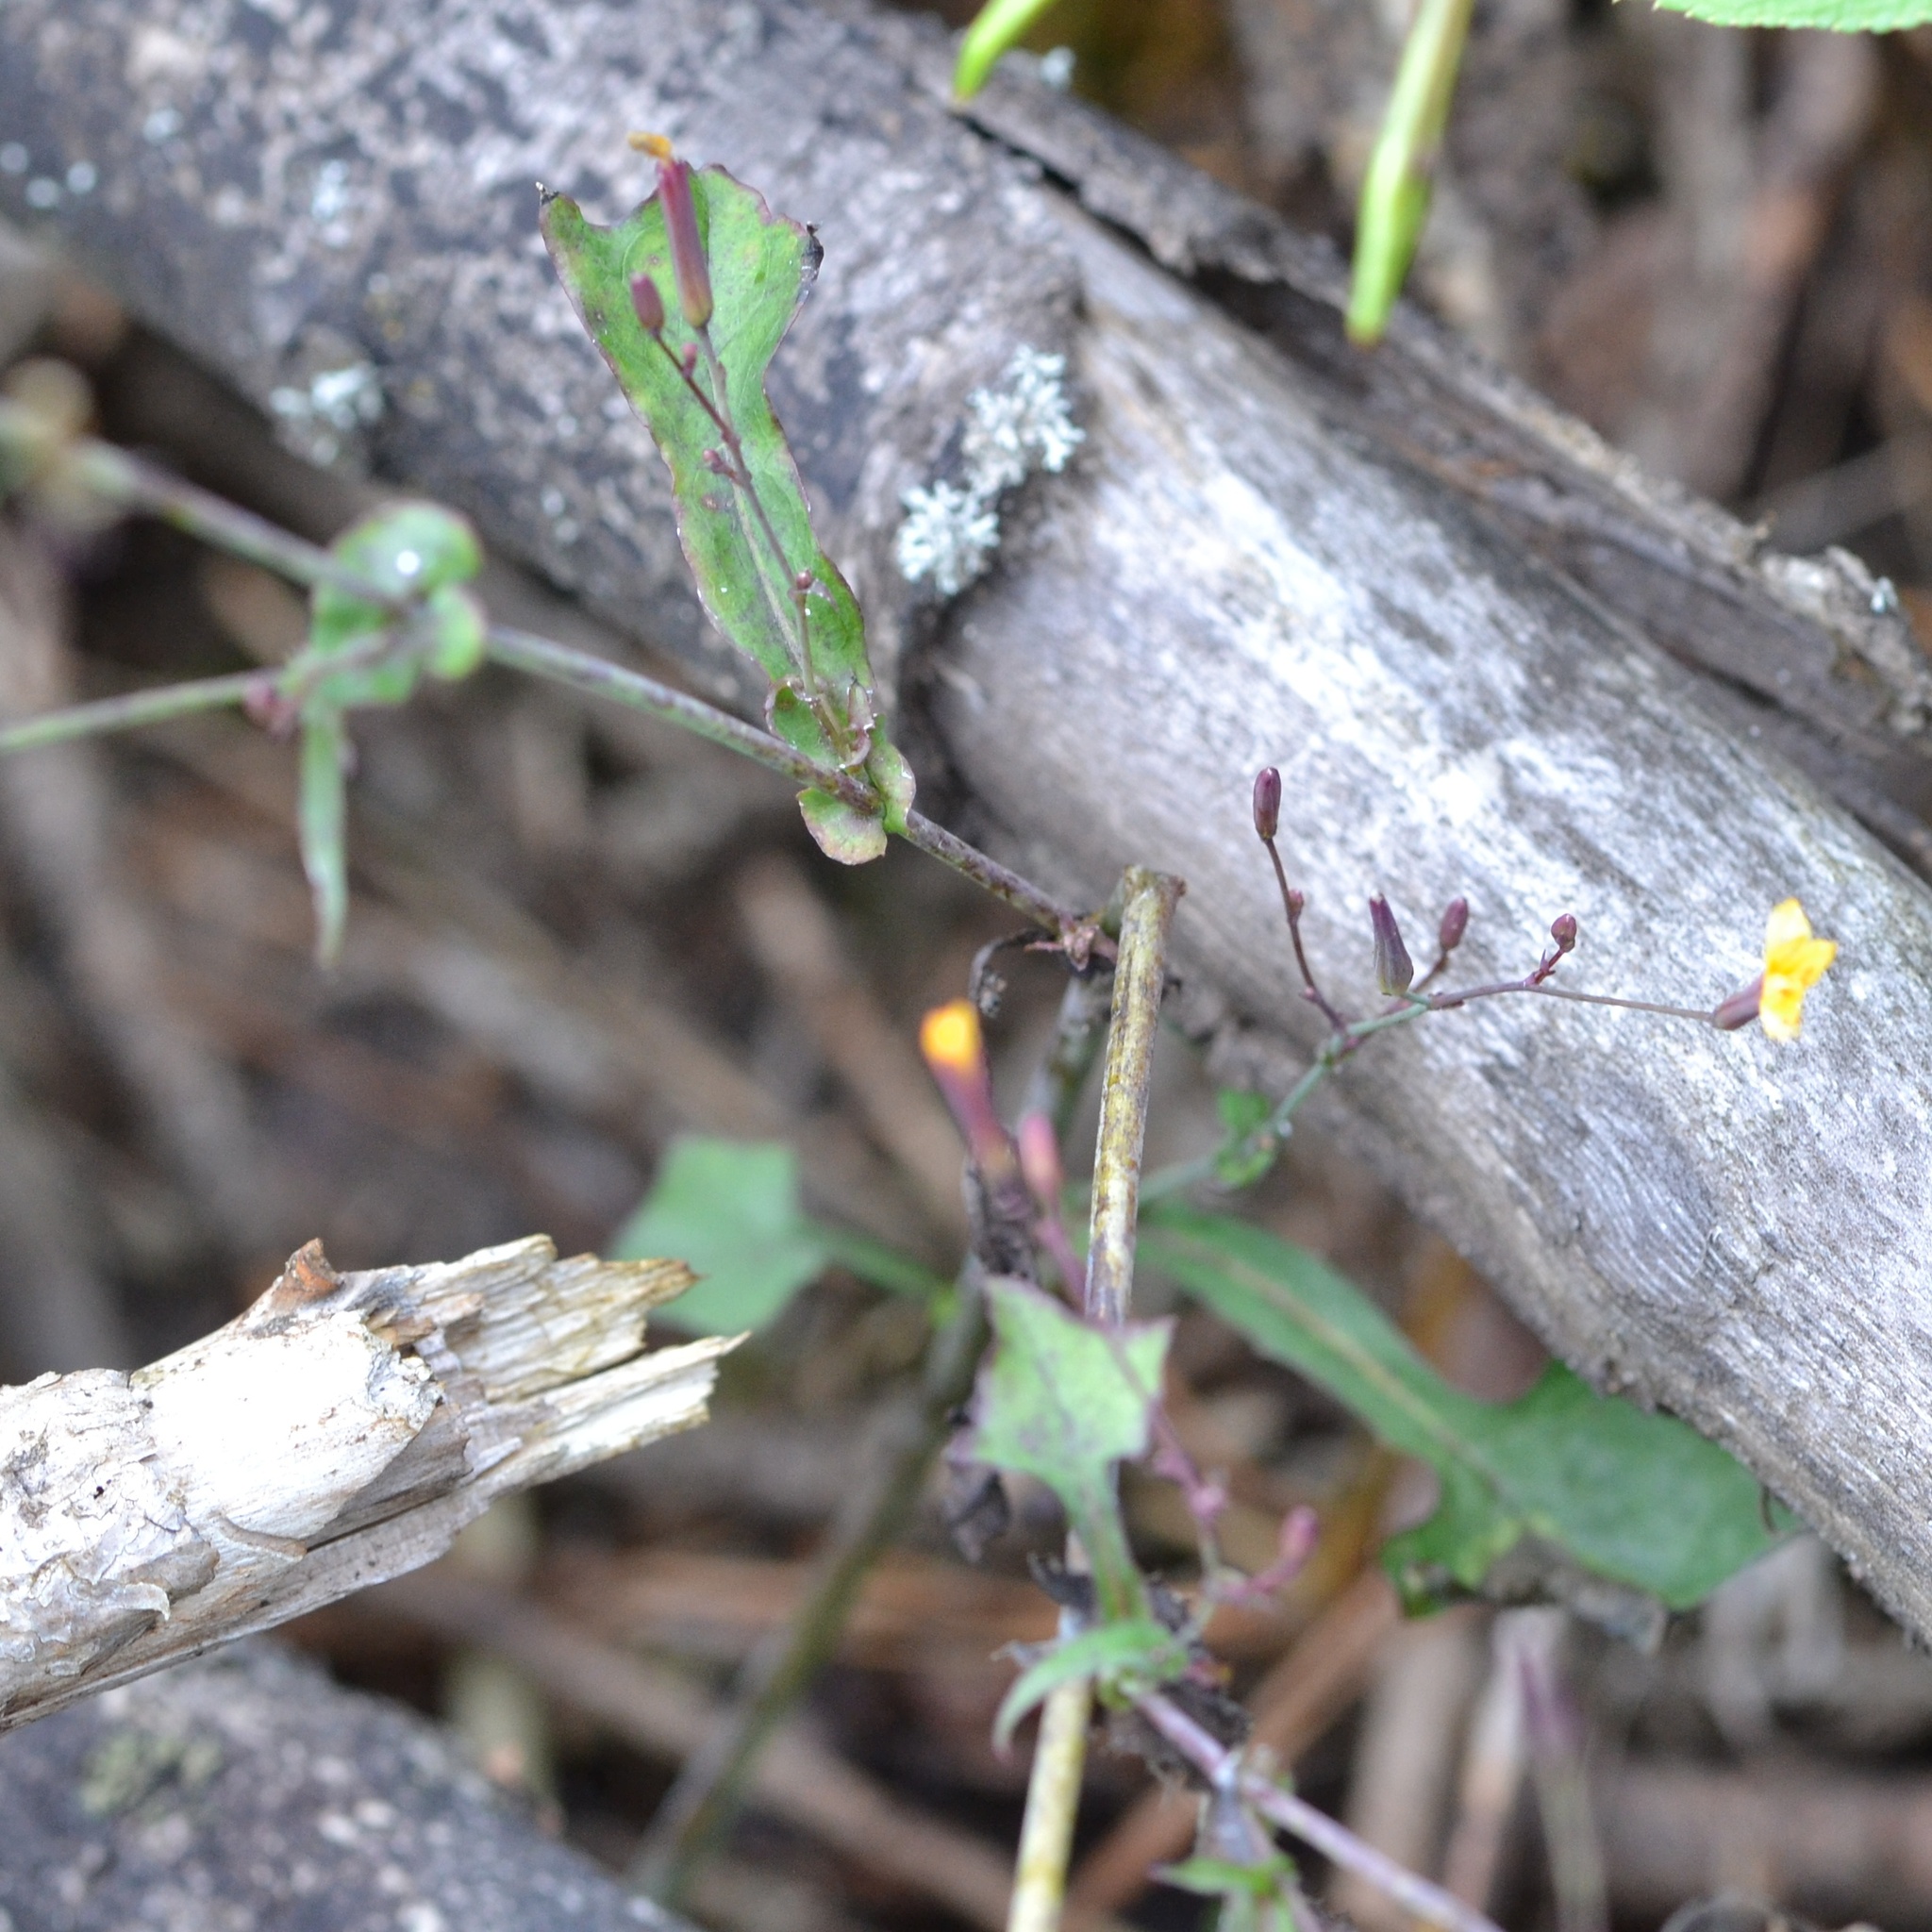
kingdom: Plantae
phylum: Tracheophyta
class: Magnoliopsida
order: Asterales
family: Asteraceae
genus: Mycelis
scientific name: Mycelis muralis
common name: Wall lettuce
